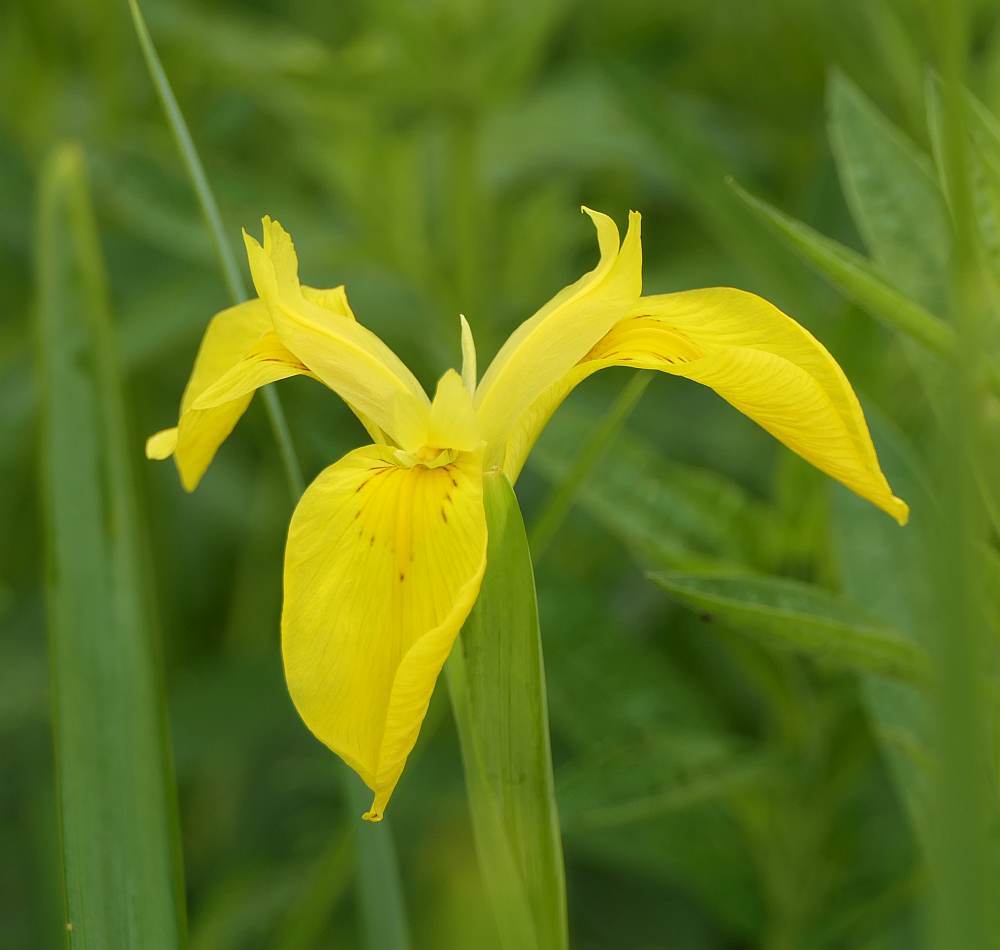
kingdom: Plantae
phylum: Tracheophyta
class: Liliopsida
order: Asparagales
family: Iridaceae
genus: Iris
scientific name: Iris pseudacorus
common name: Yellow flag
